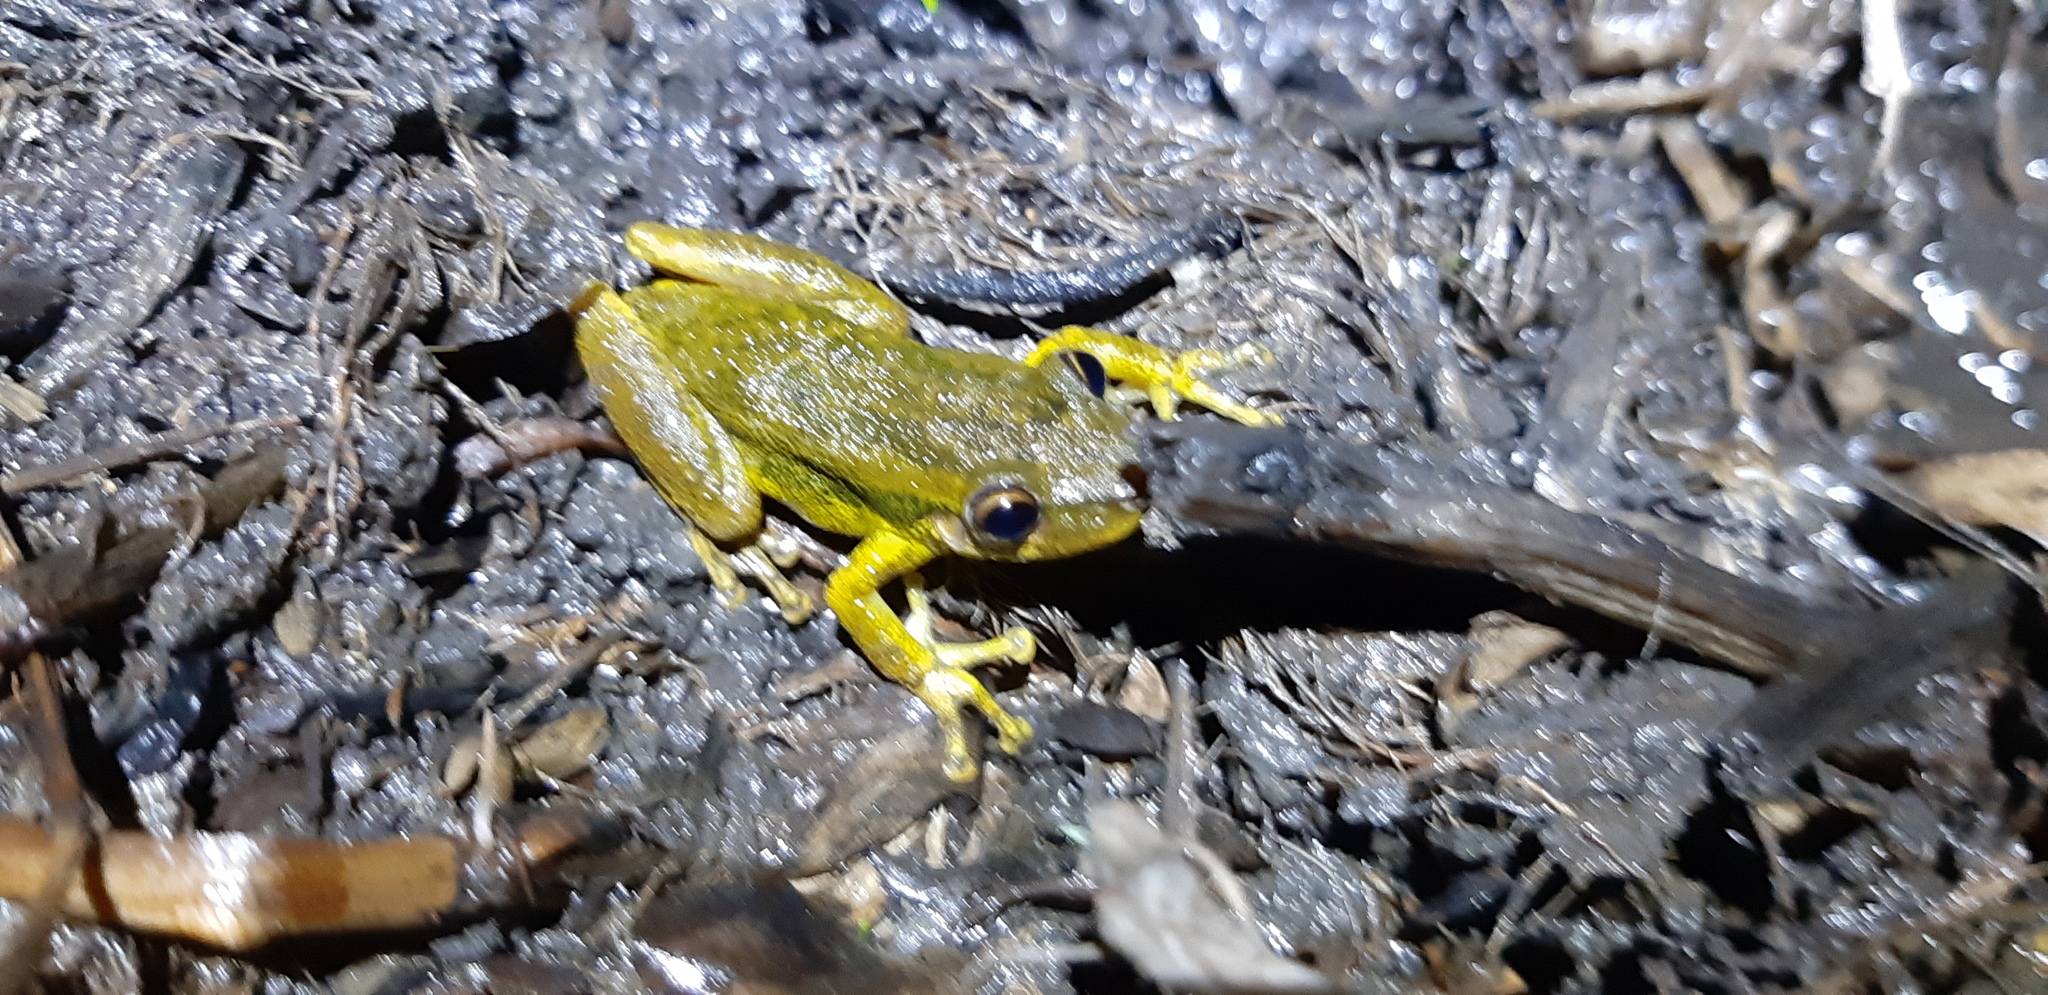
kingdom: Animalia
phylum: Chordata
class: Amphibia
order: Anura
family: Hylidae
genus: Scinax
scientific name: Scinax ruber
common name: Red snouted treefrog
